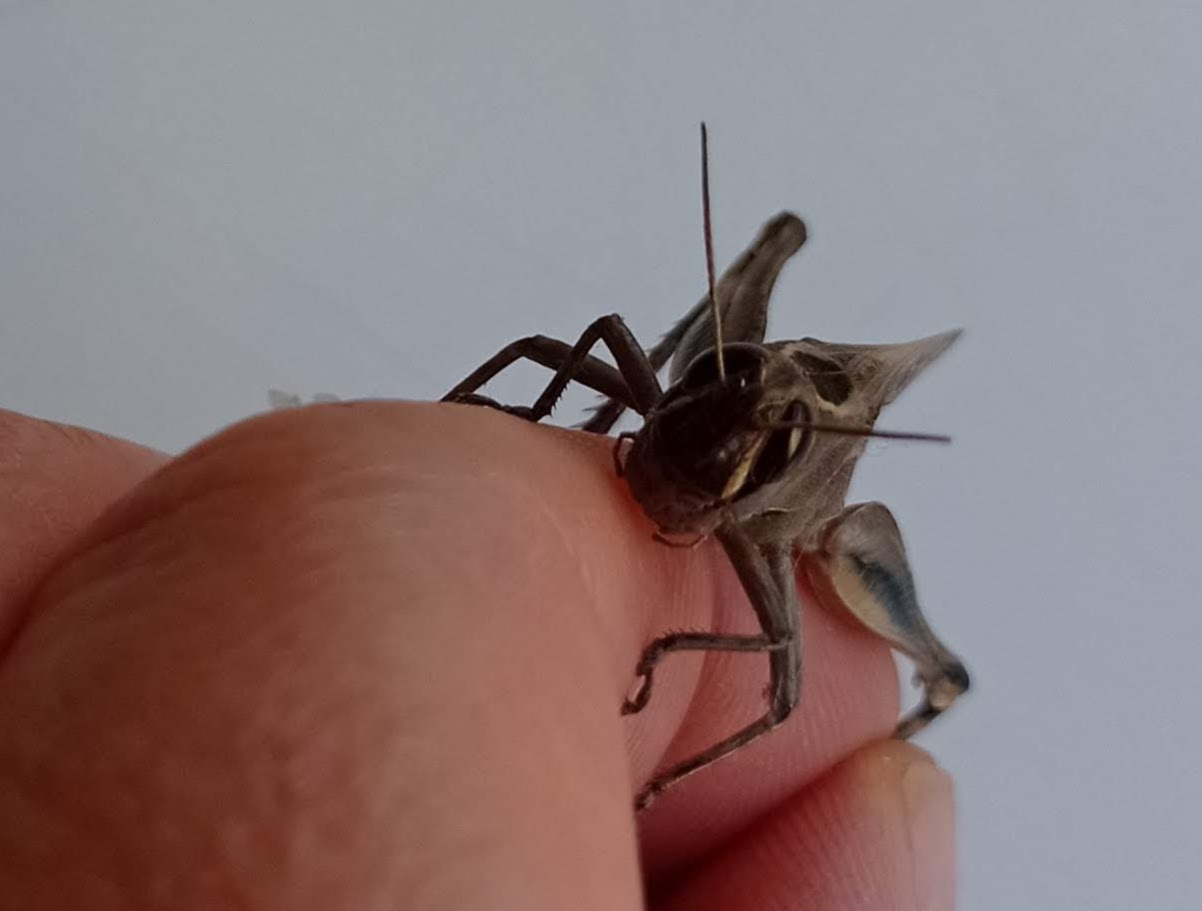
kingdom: Animalia
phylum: Arthropoda
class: Insecta
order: Orthoptera
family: Acrididae
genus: Eyprepocnemis
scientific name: Eyprepocnemis plorans
